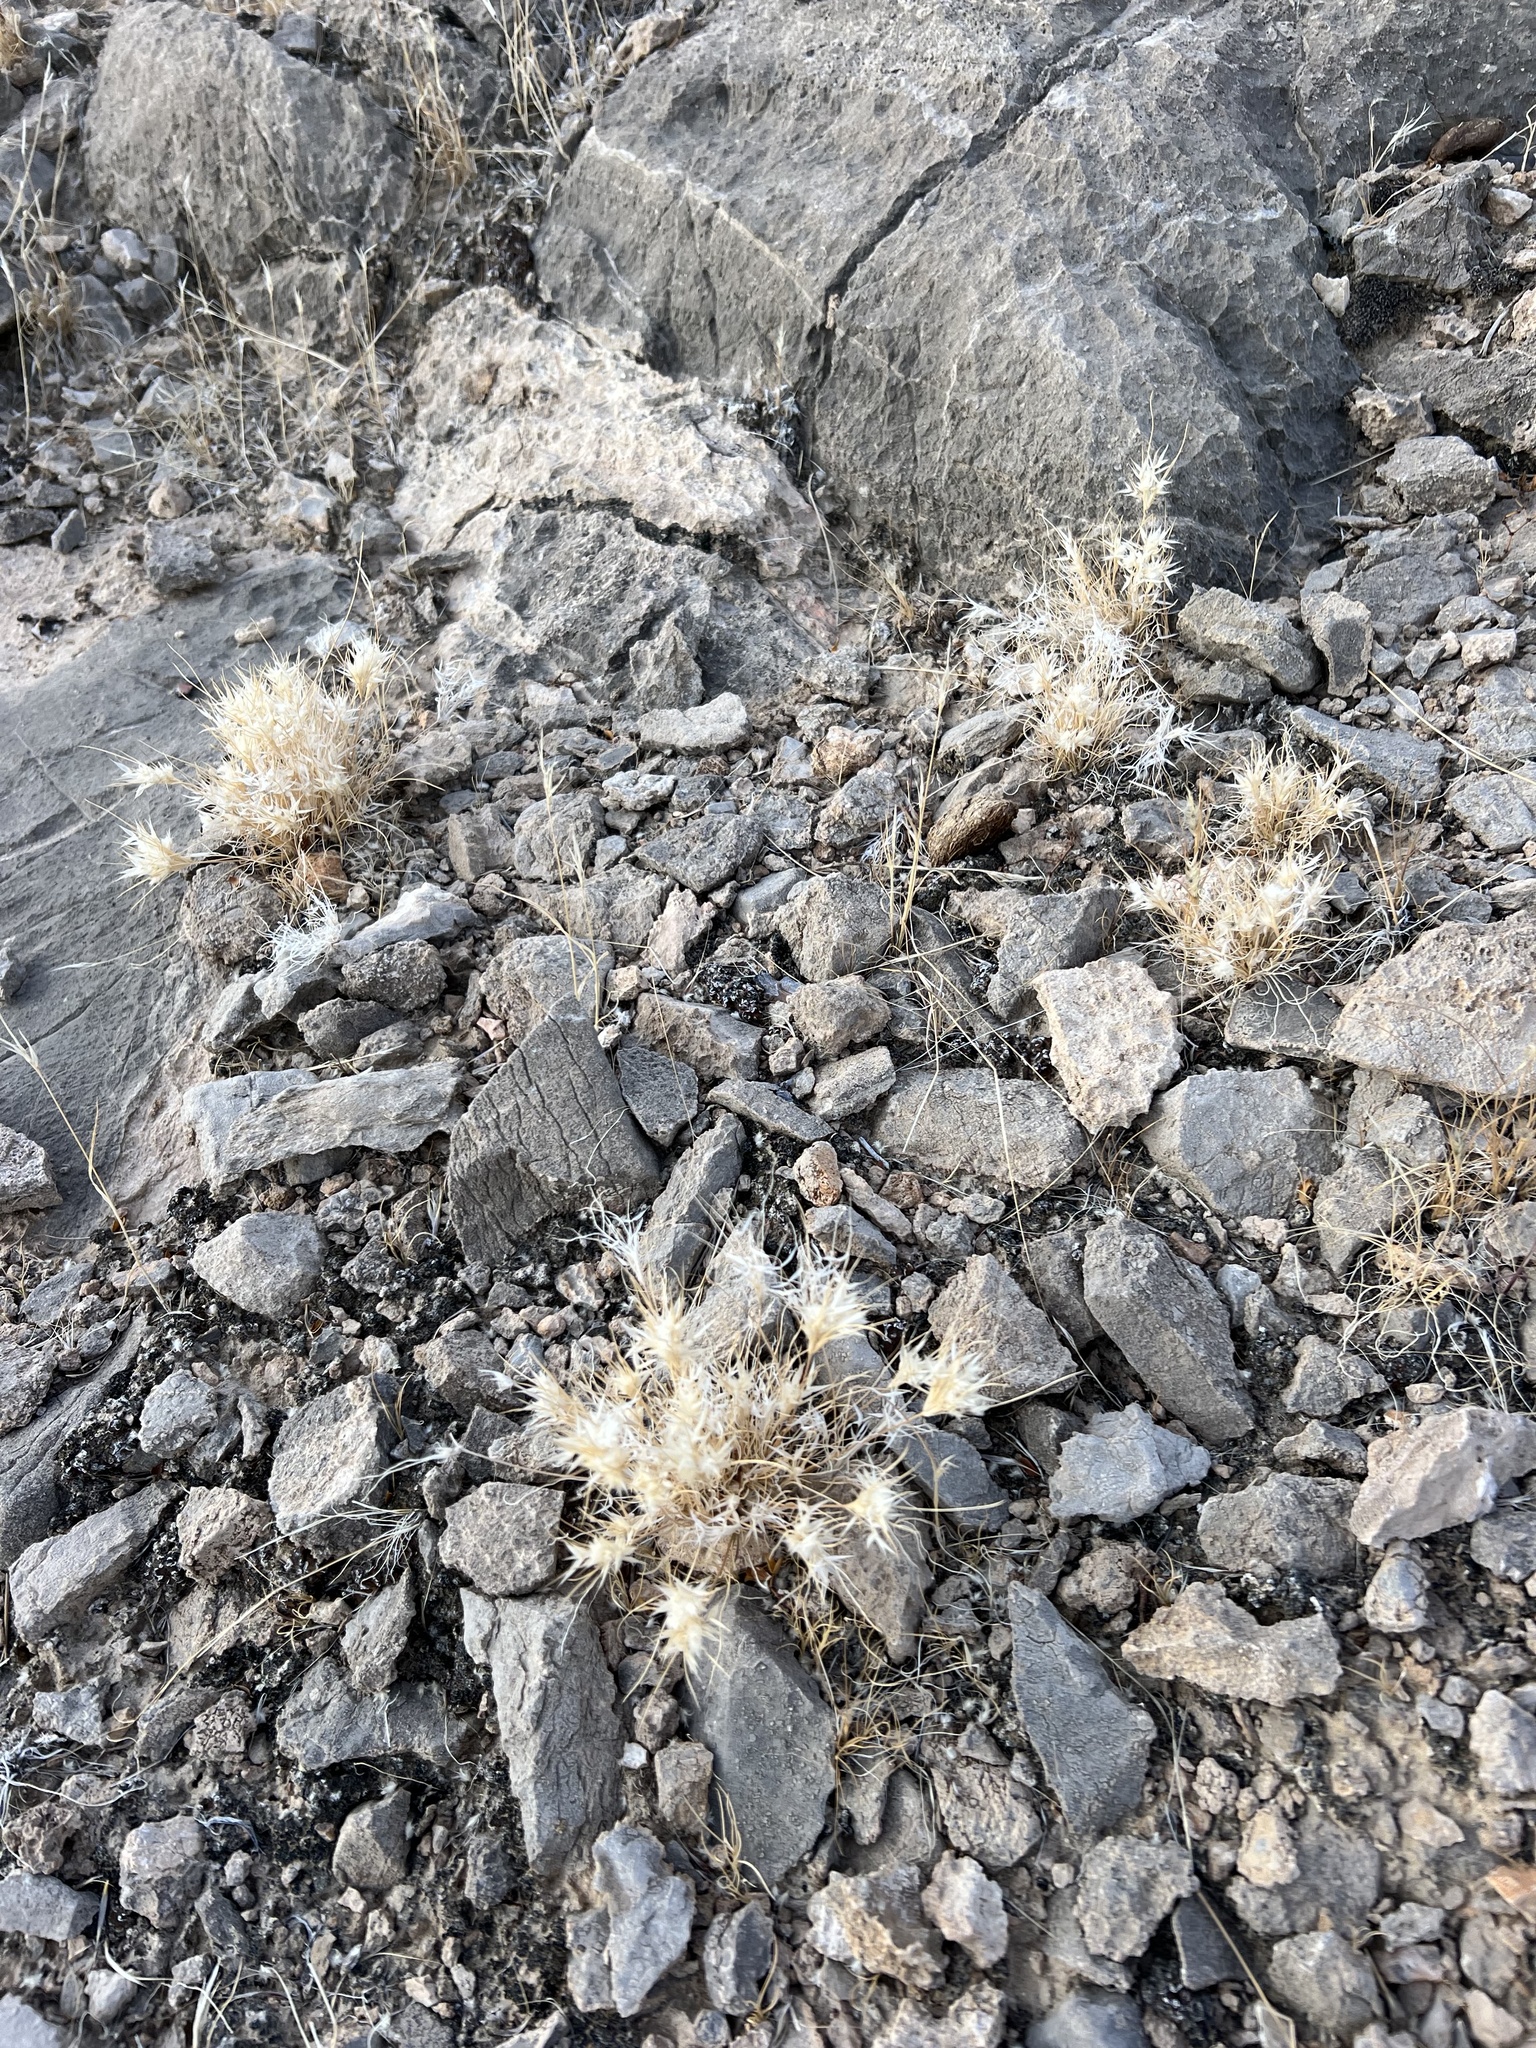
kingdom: Plantae
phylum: Tracheophyta
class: Liliopsida
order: Poales
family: Poaceae
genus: Dasyochloa
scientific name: Dasyochloa pulchella
